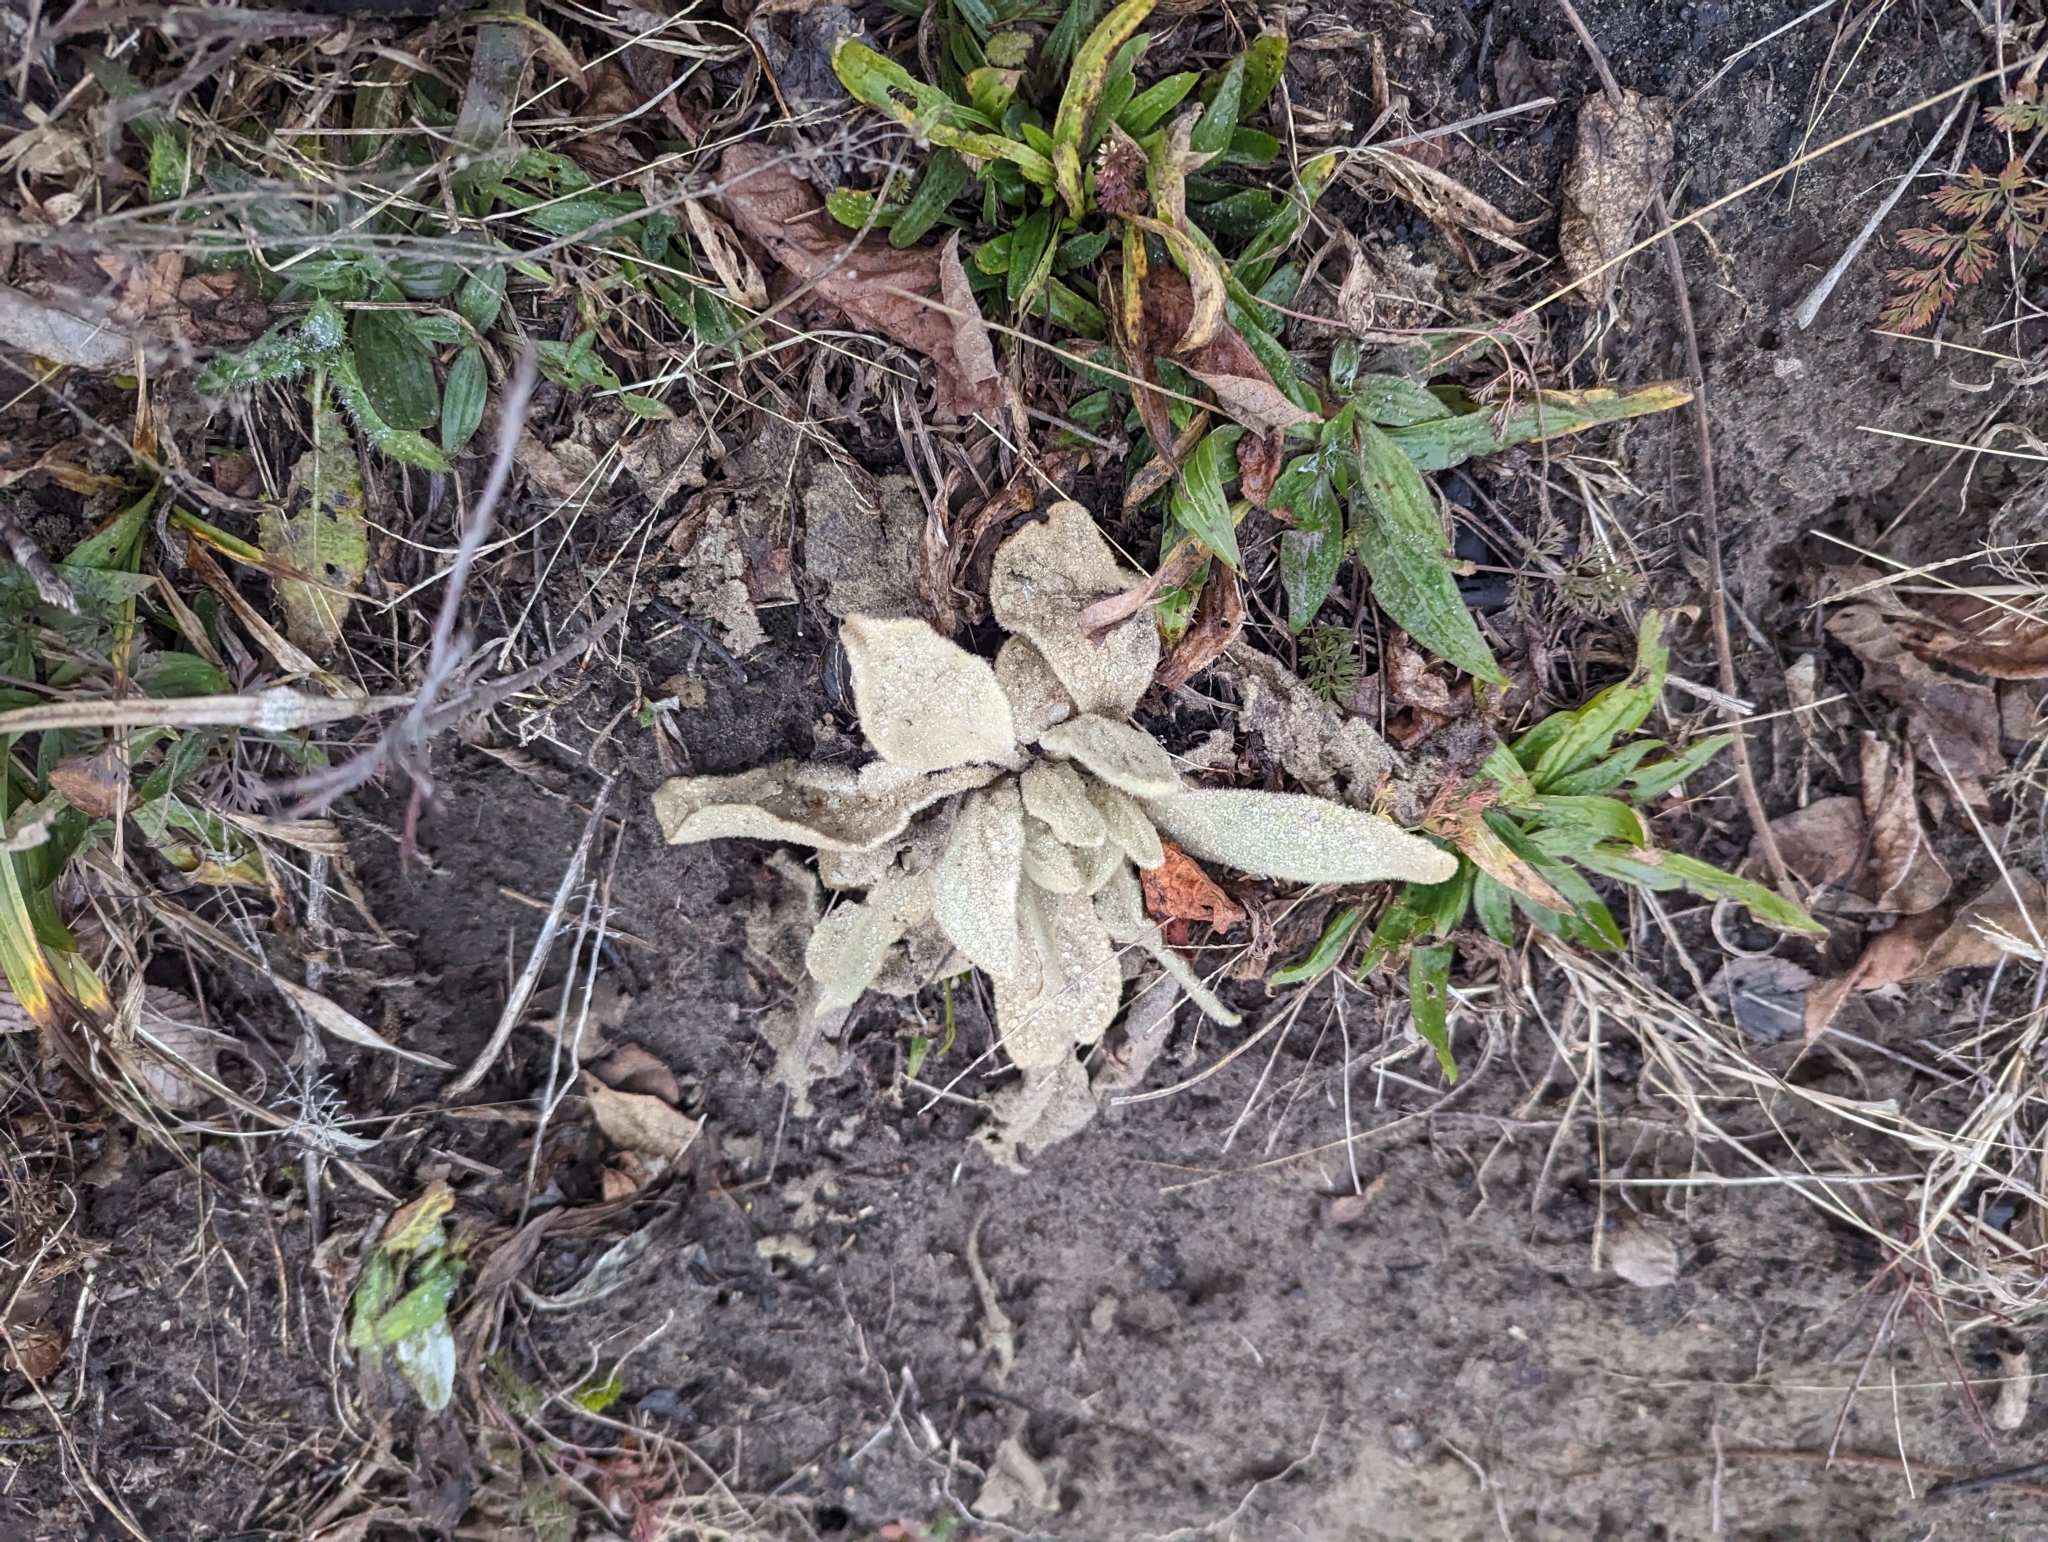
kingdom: Plantae
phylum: Tracheophyta
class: Magnoliopsida
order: Lamiales
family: Scrophulariaceae
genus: Verbascum
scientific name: Verbascum thapsus
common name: Common mullein
